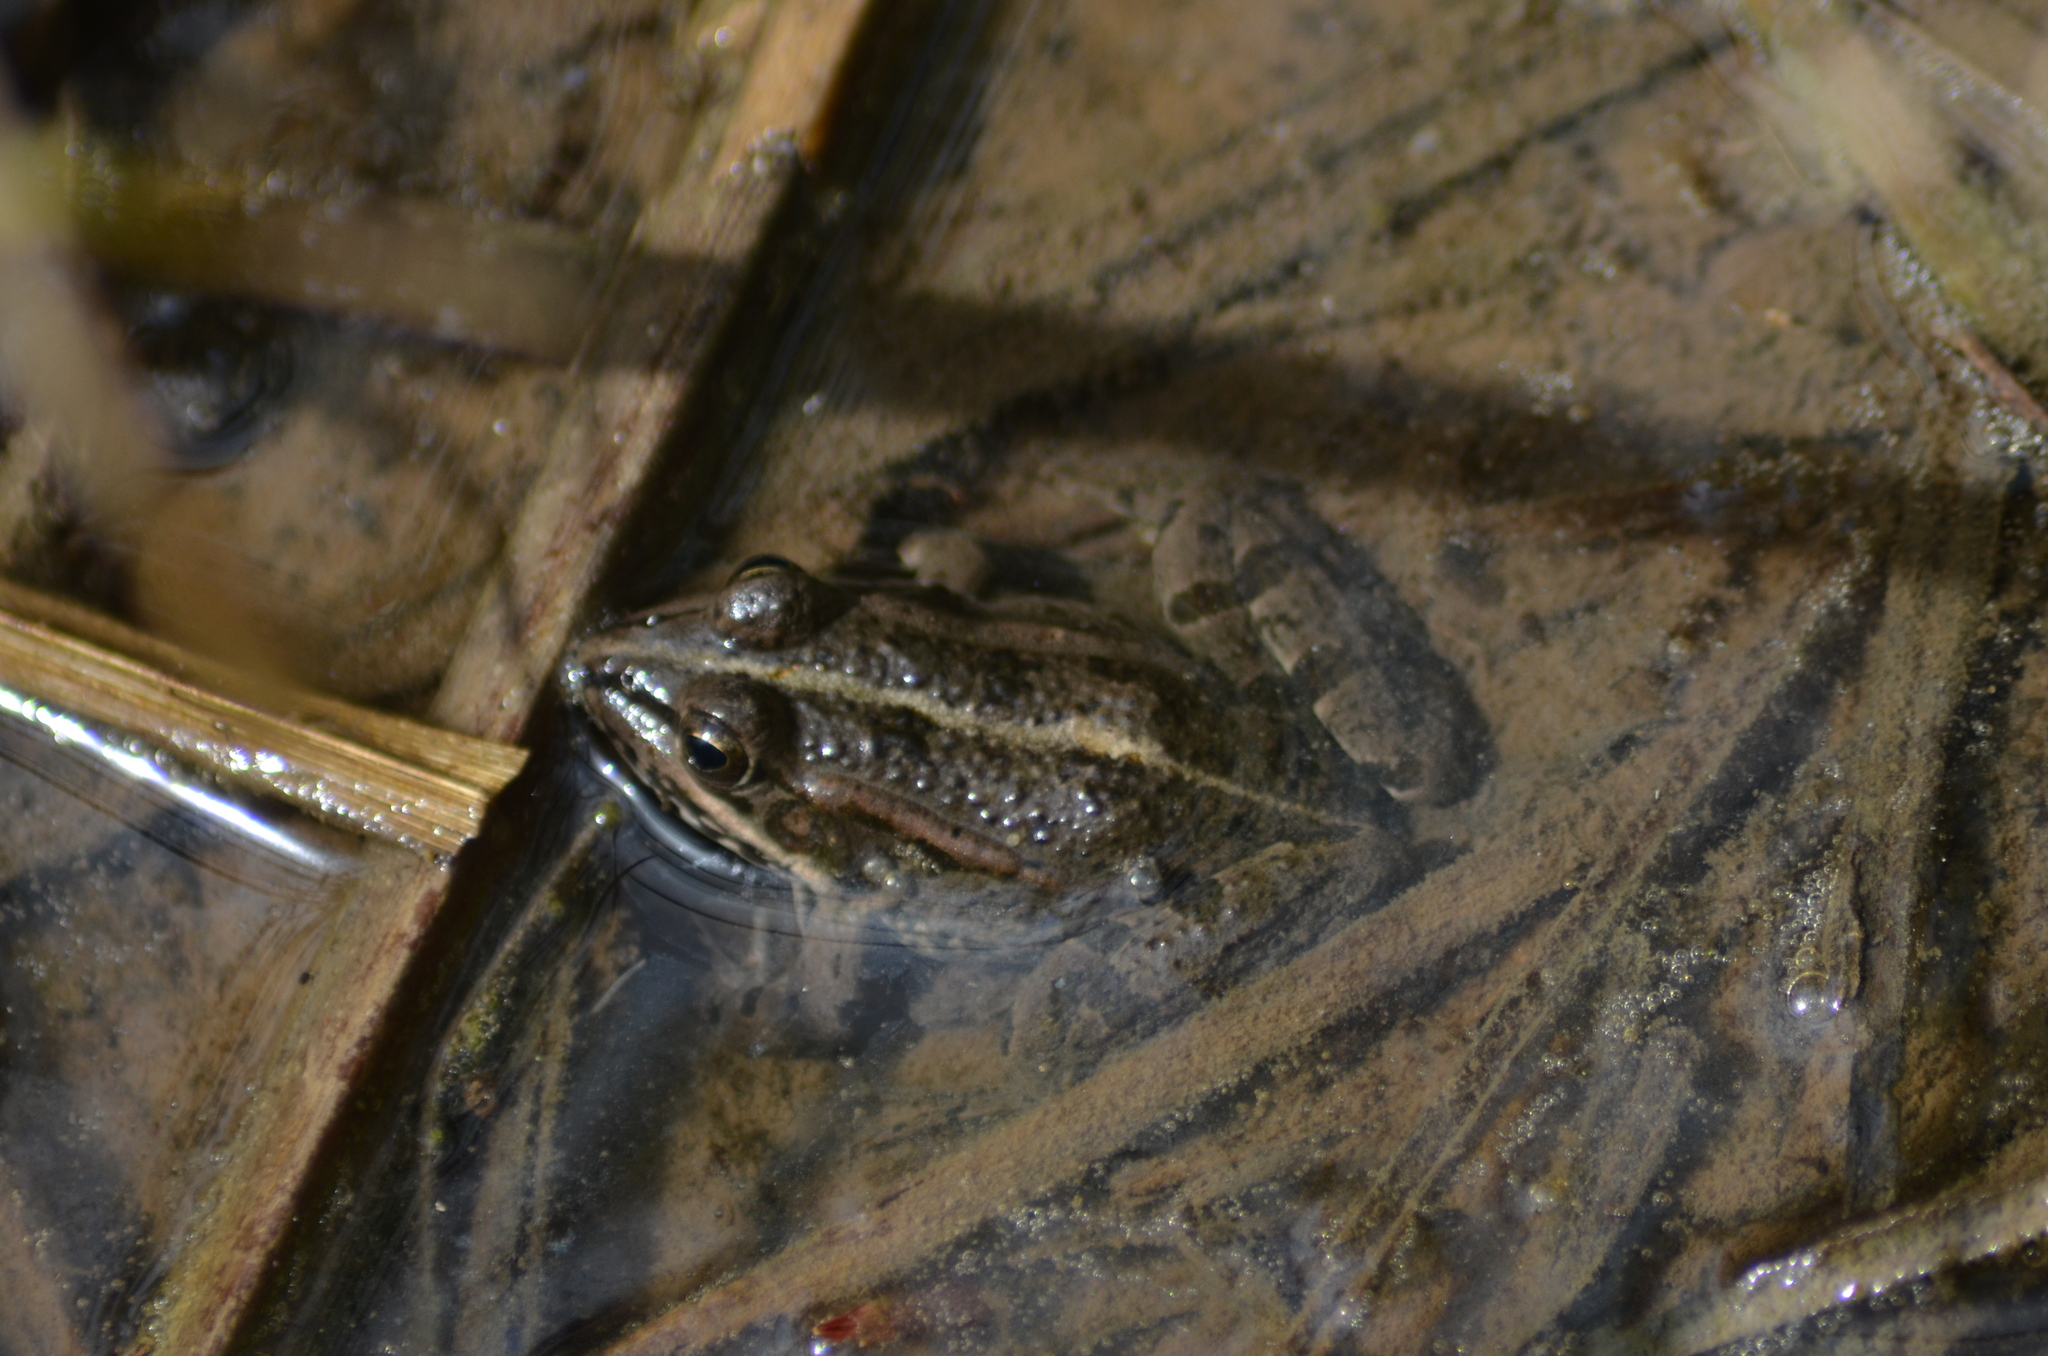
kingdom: Animalia
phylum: Chordata
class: Amphibia
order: Anura
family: Ranidae
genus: Pelophylax
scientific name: Pelophylax perezi
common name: Perez's frog
